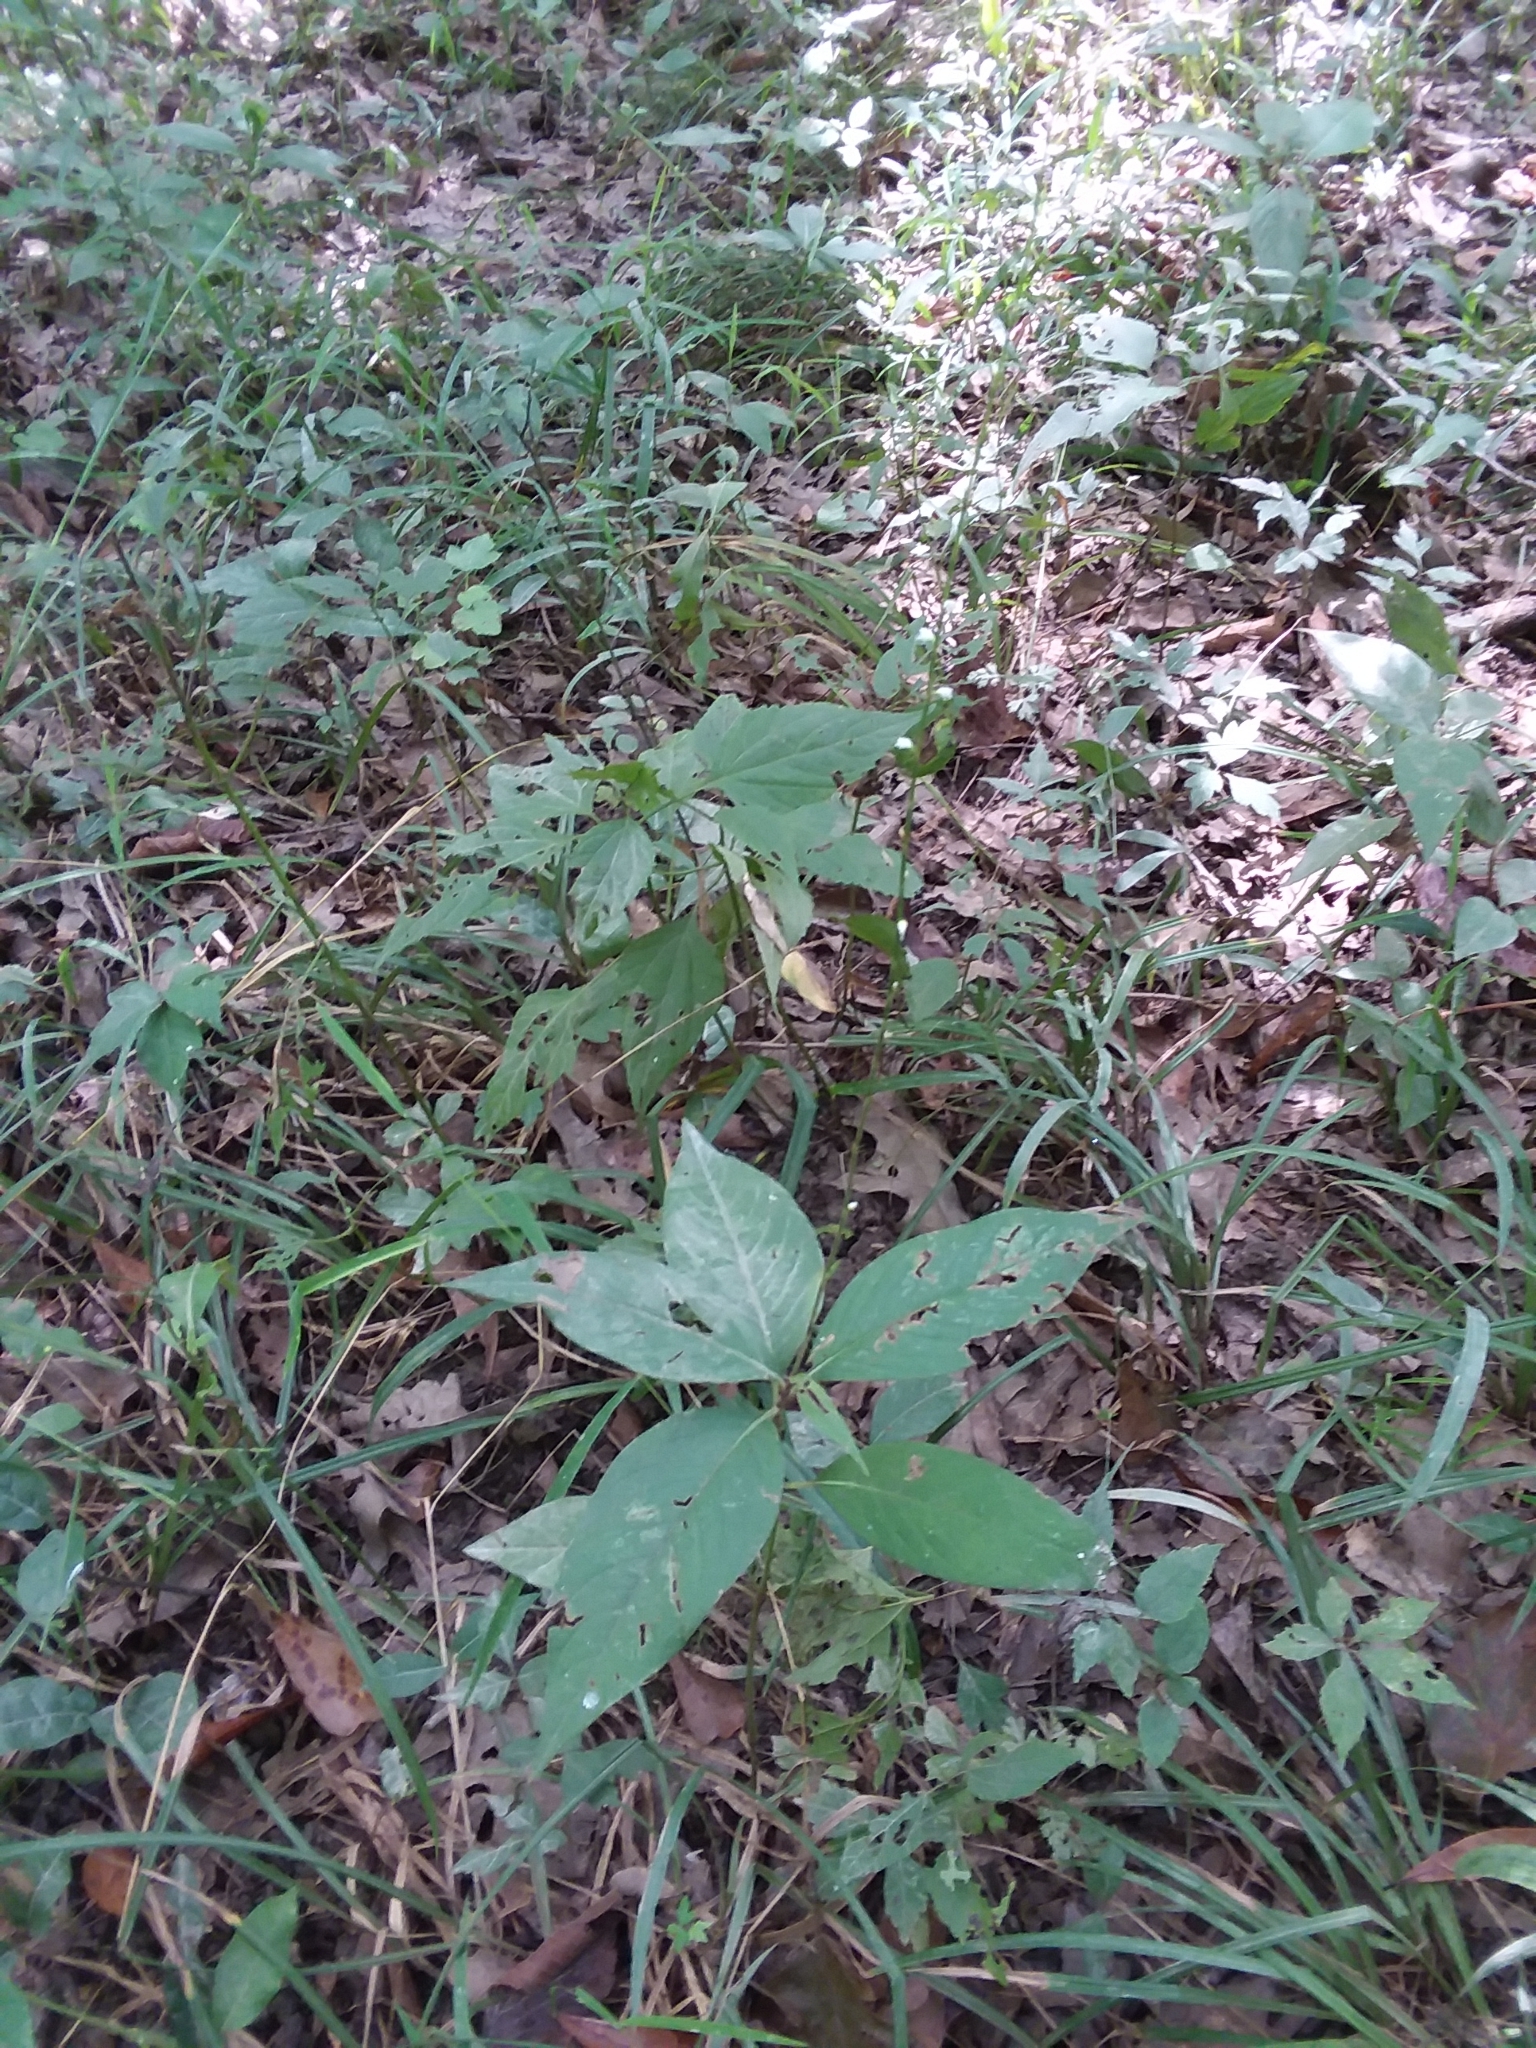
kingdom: Plantae
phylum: Tracheophyta
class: Magnoliopsida
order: Caryophyllales
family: Polygonaceae
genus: Persicaria
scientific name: Persicaria virginiana
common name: Jumpseed
